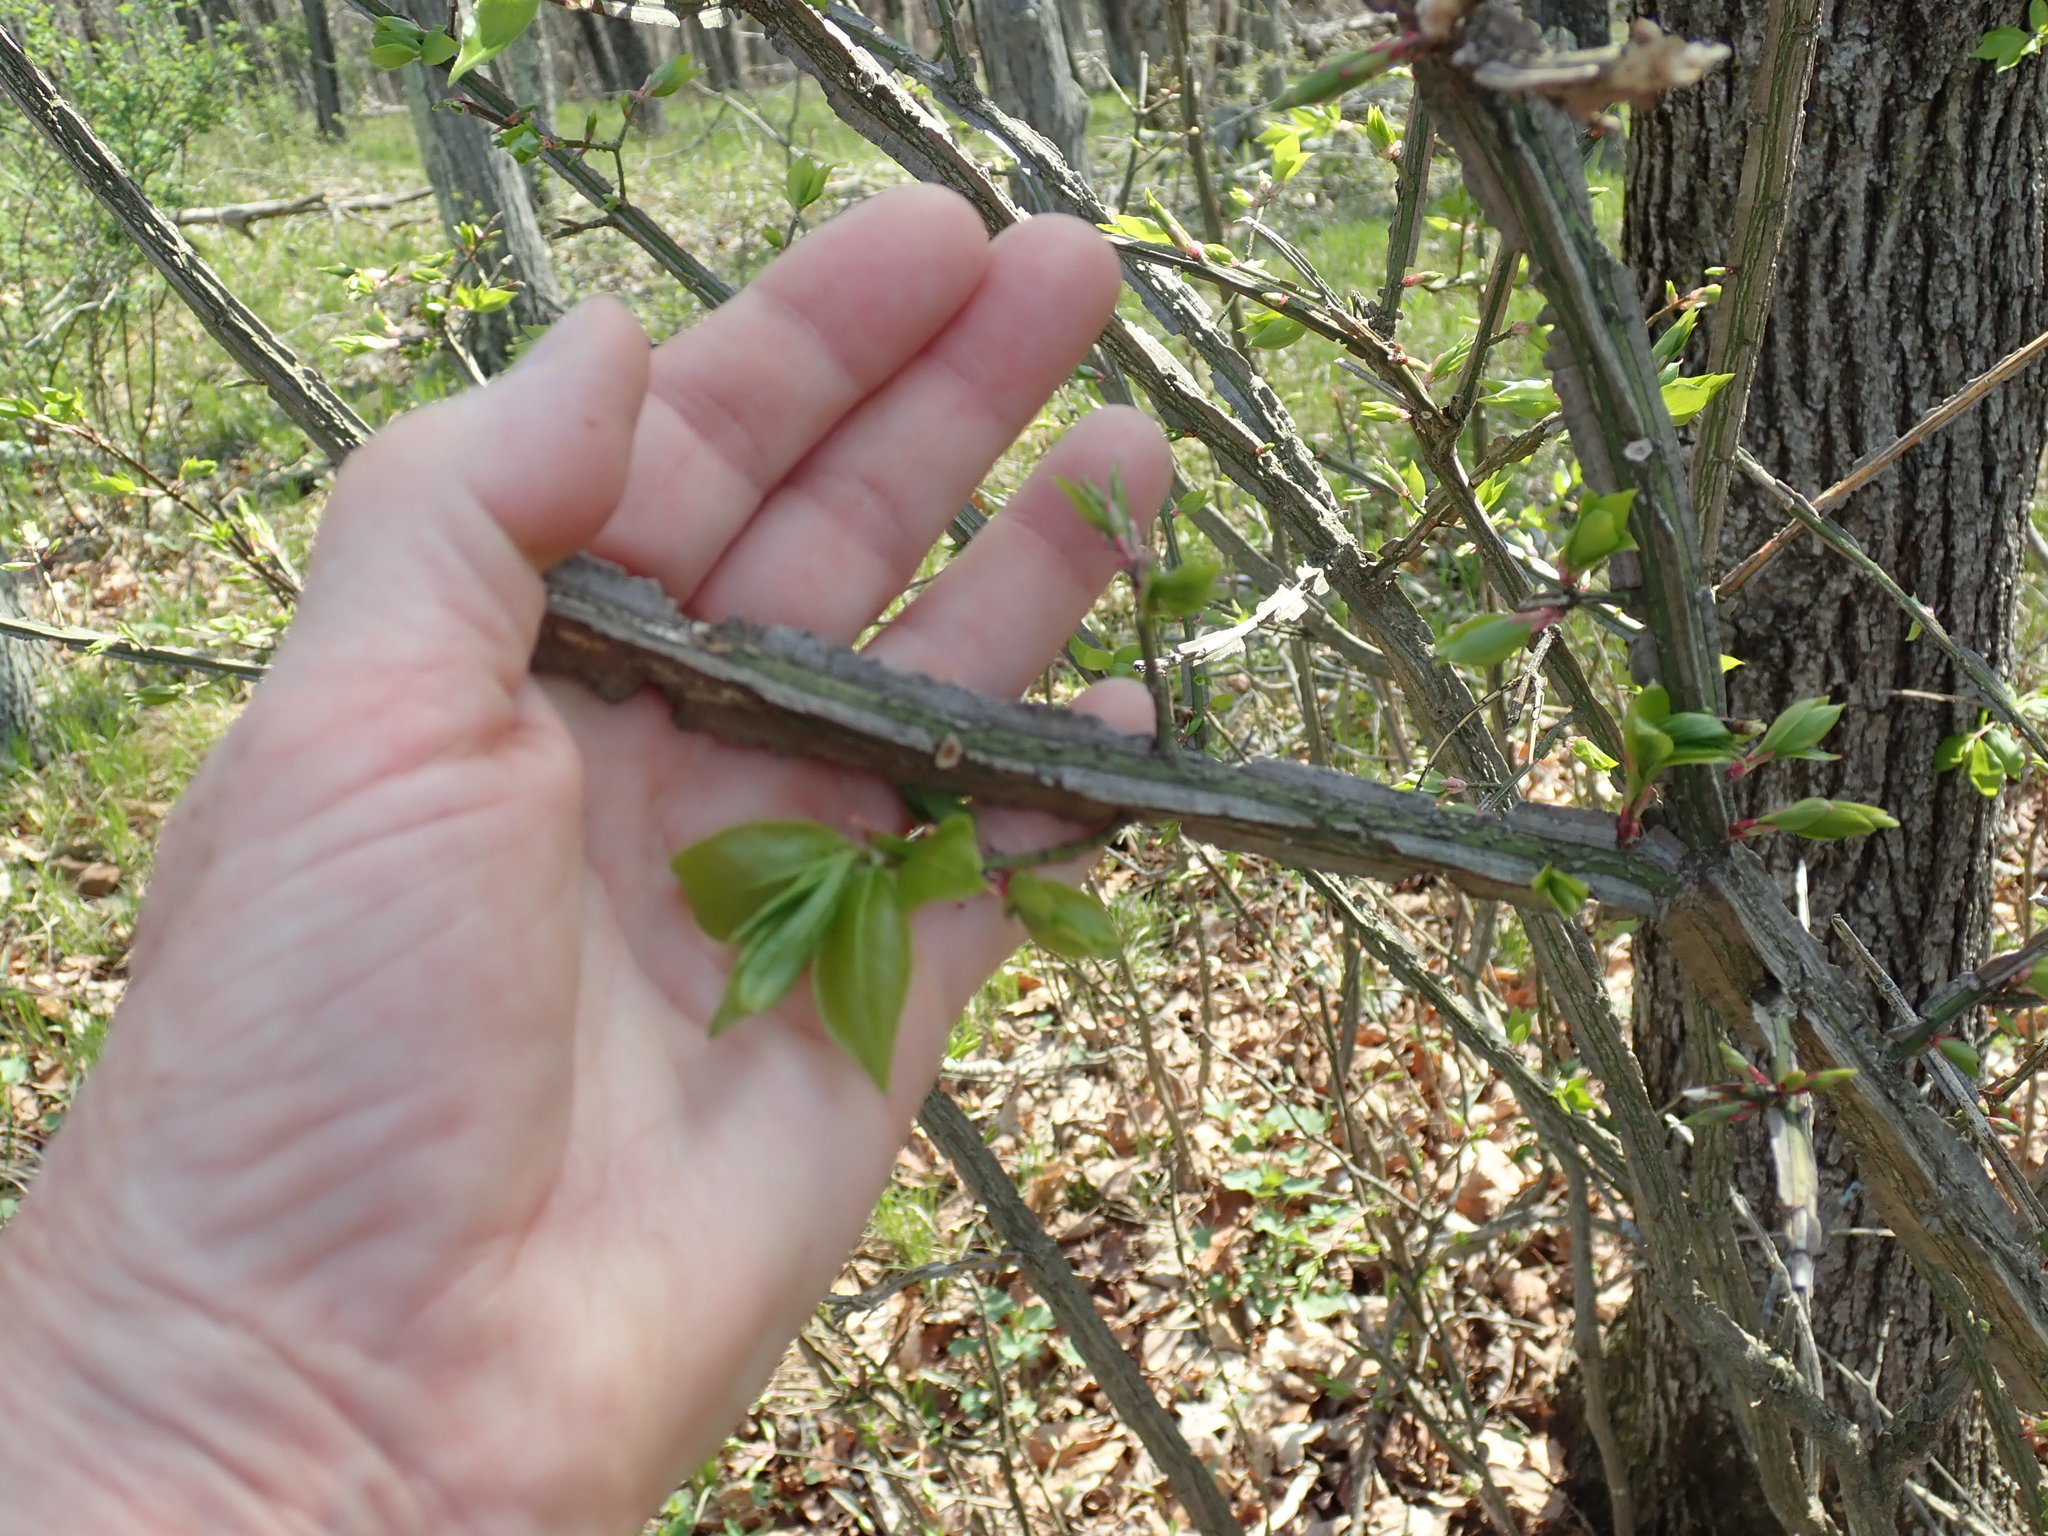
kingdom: Plantae
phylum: Tracheophyta
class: Magnoliopsida
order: Celastrales
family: Celastraceae
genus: Euonymus
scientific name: Euonymus alatus
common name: Winged euonymus
